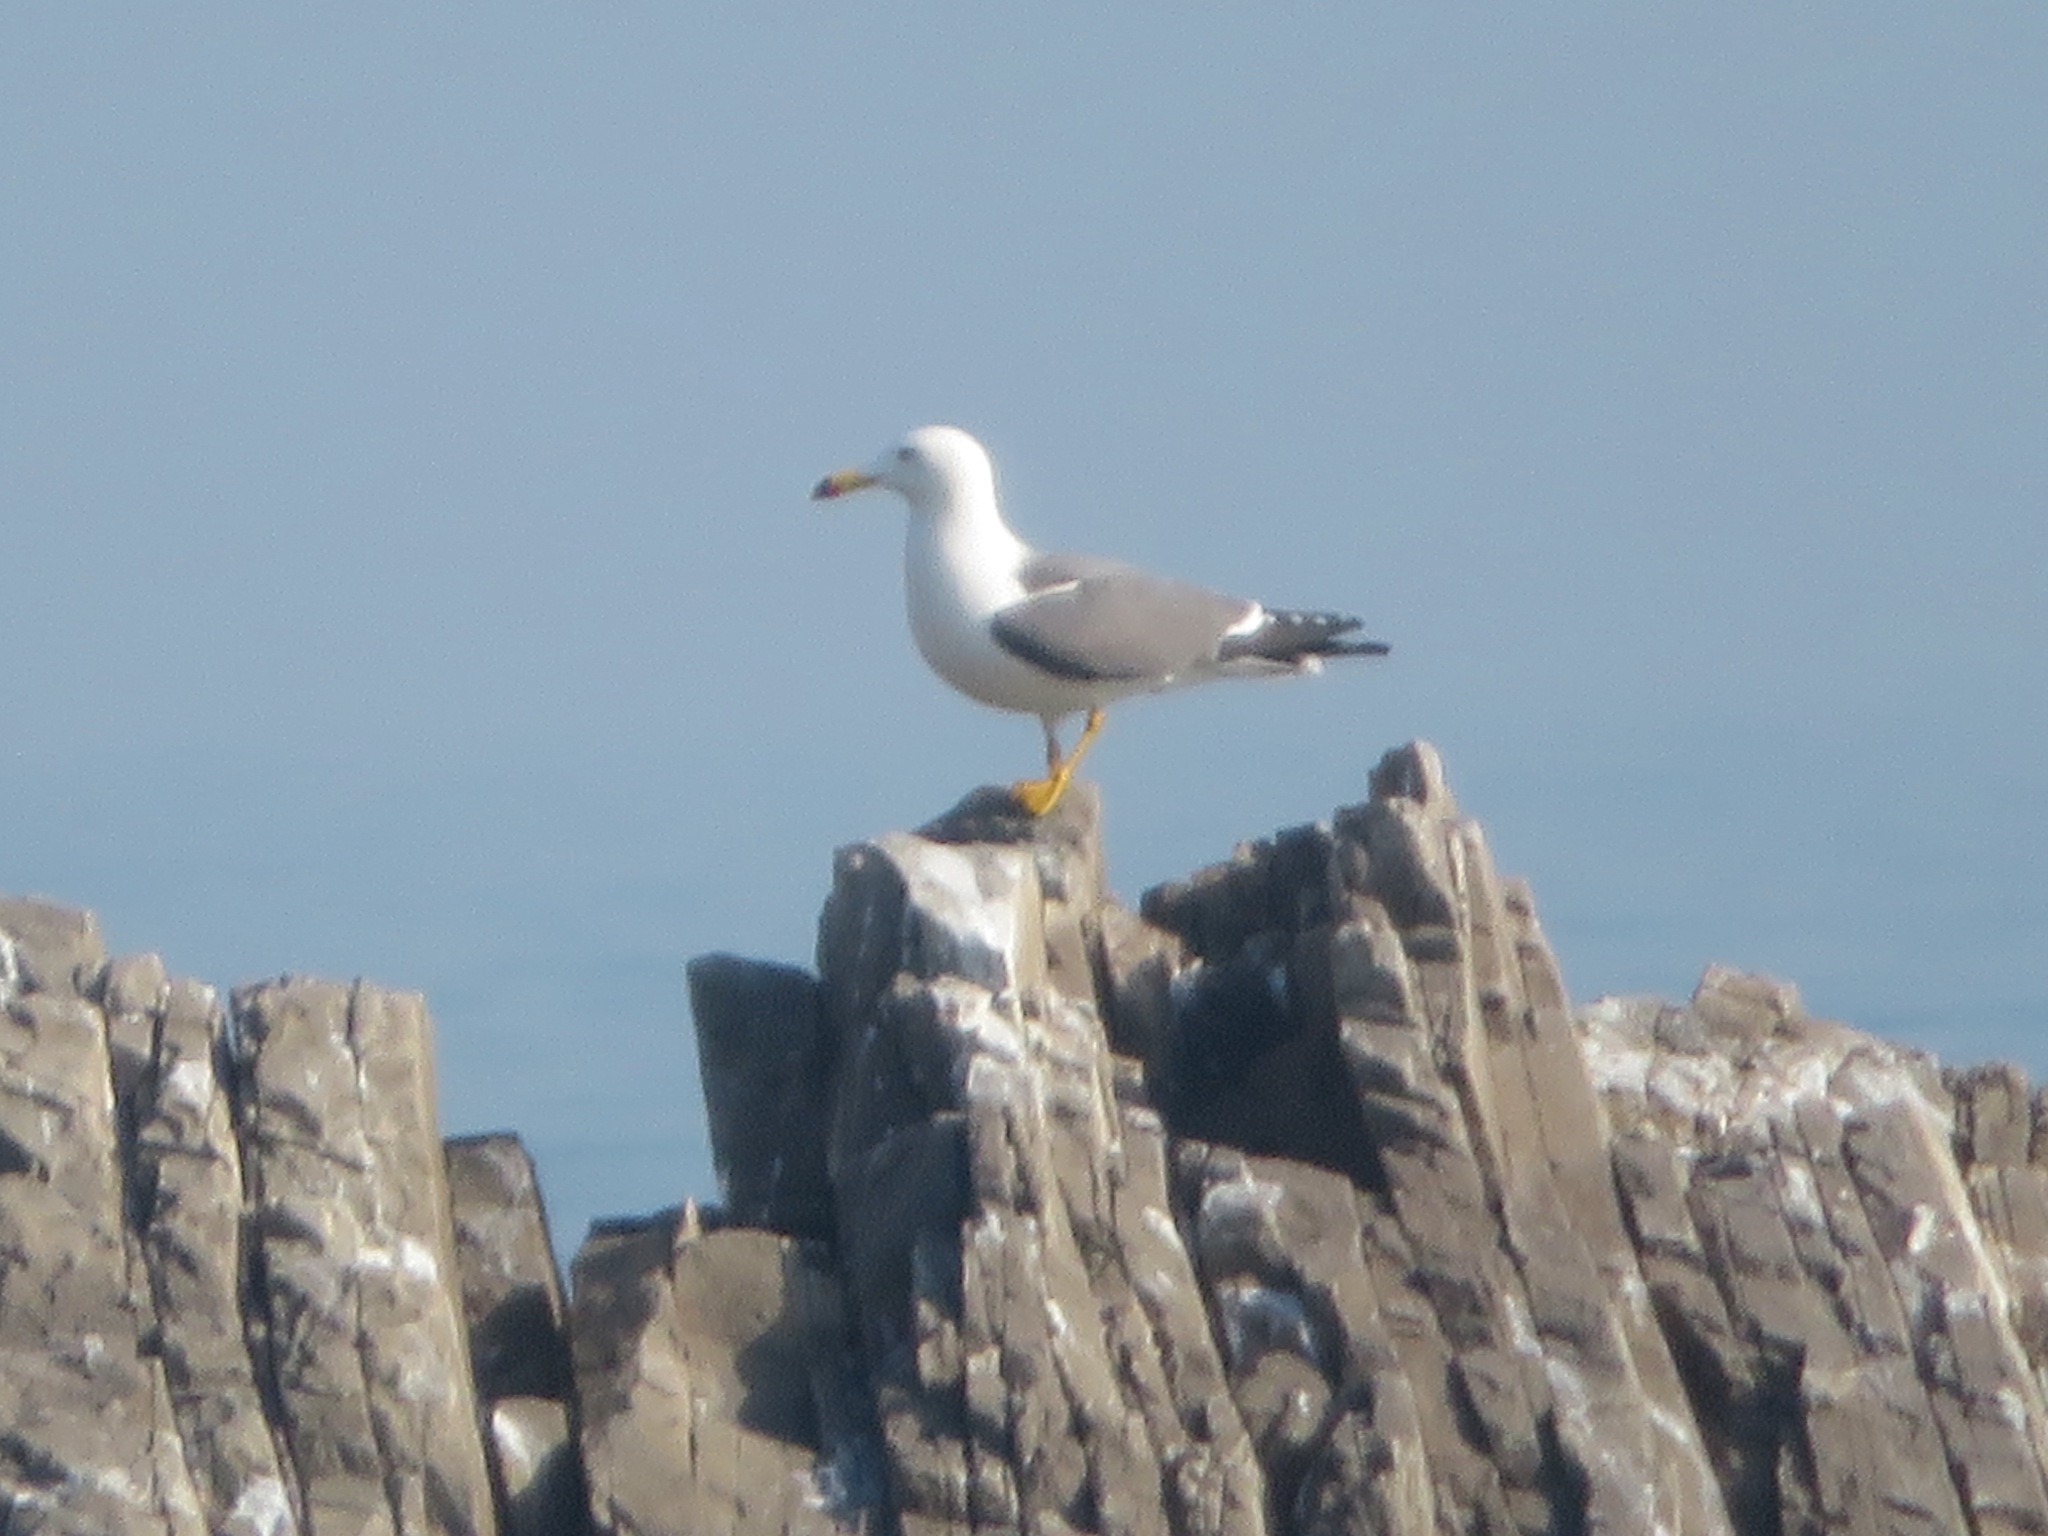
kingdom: Animalia
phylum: Chordata
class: Aves
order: Charadriiformes
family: Laridae
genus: Larus
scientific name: Larus crassirostris
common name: Black-tailed gull
